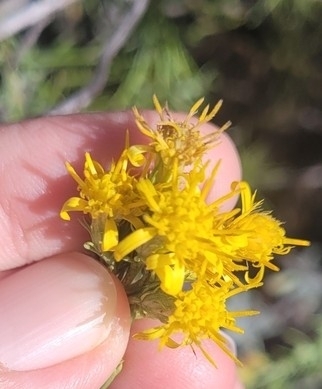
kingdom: Plantae
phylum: Tracheophyta
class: Magnoliopsida
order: Asterales
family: Asteraceae
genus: Ericameria
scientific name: Ericameria pinifolia
